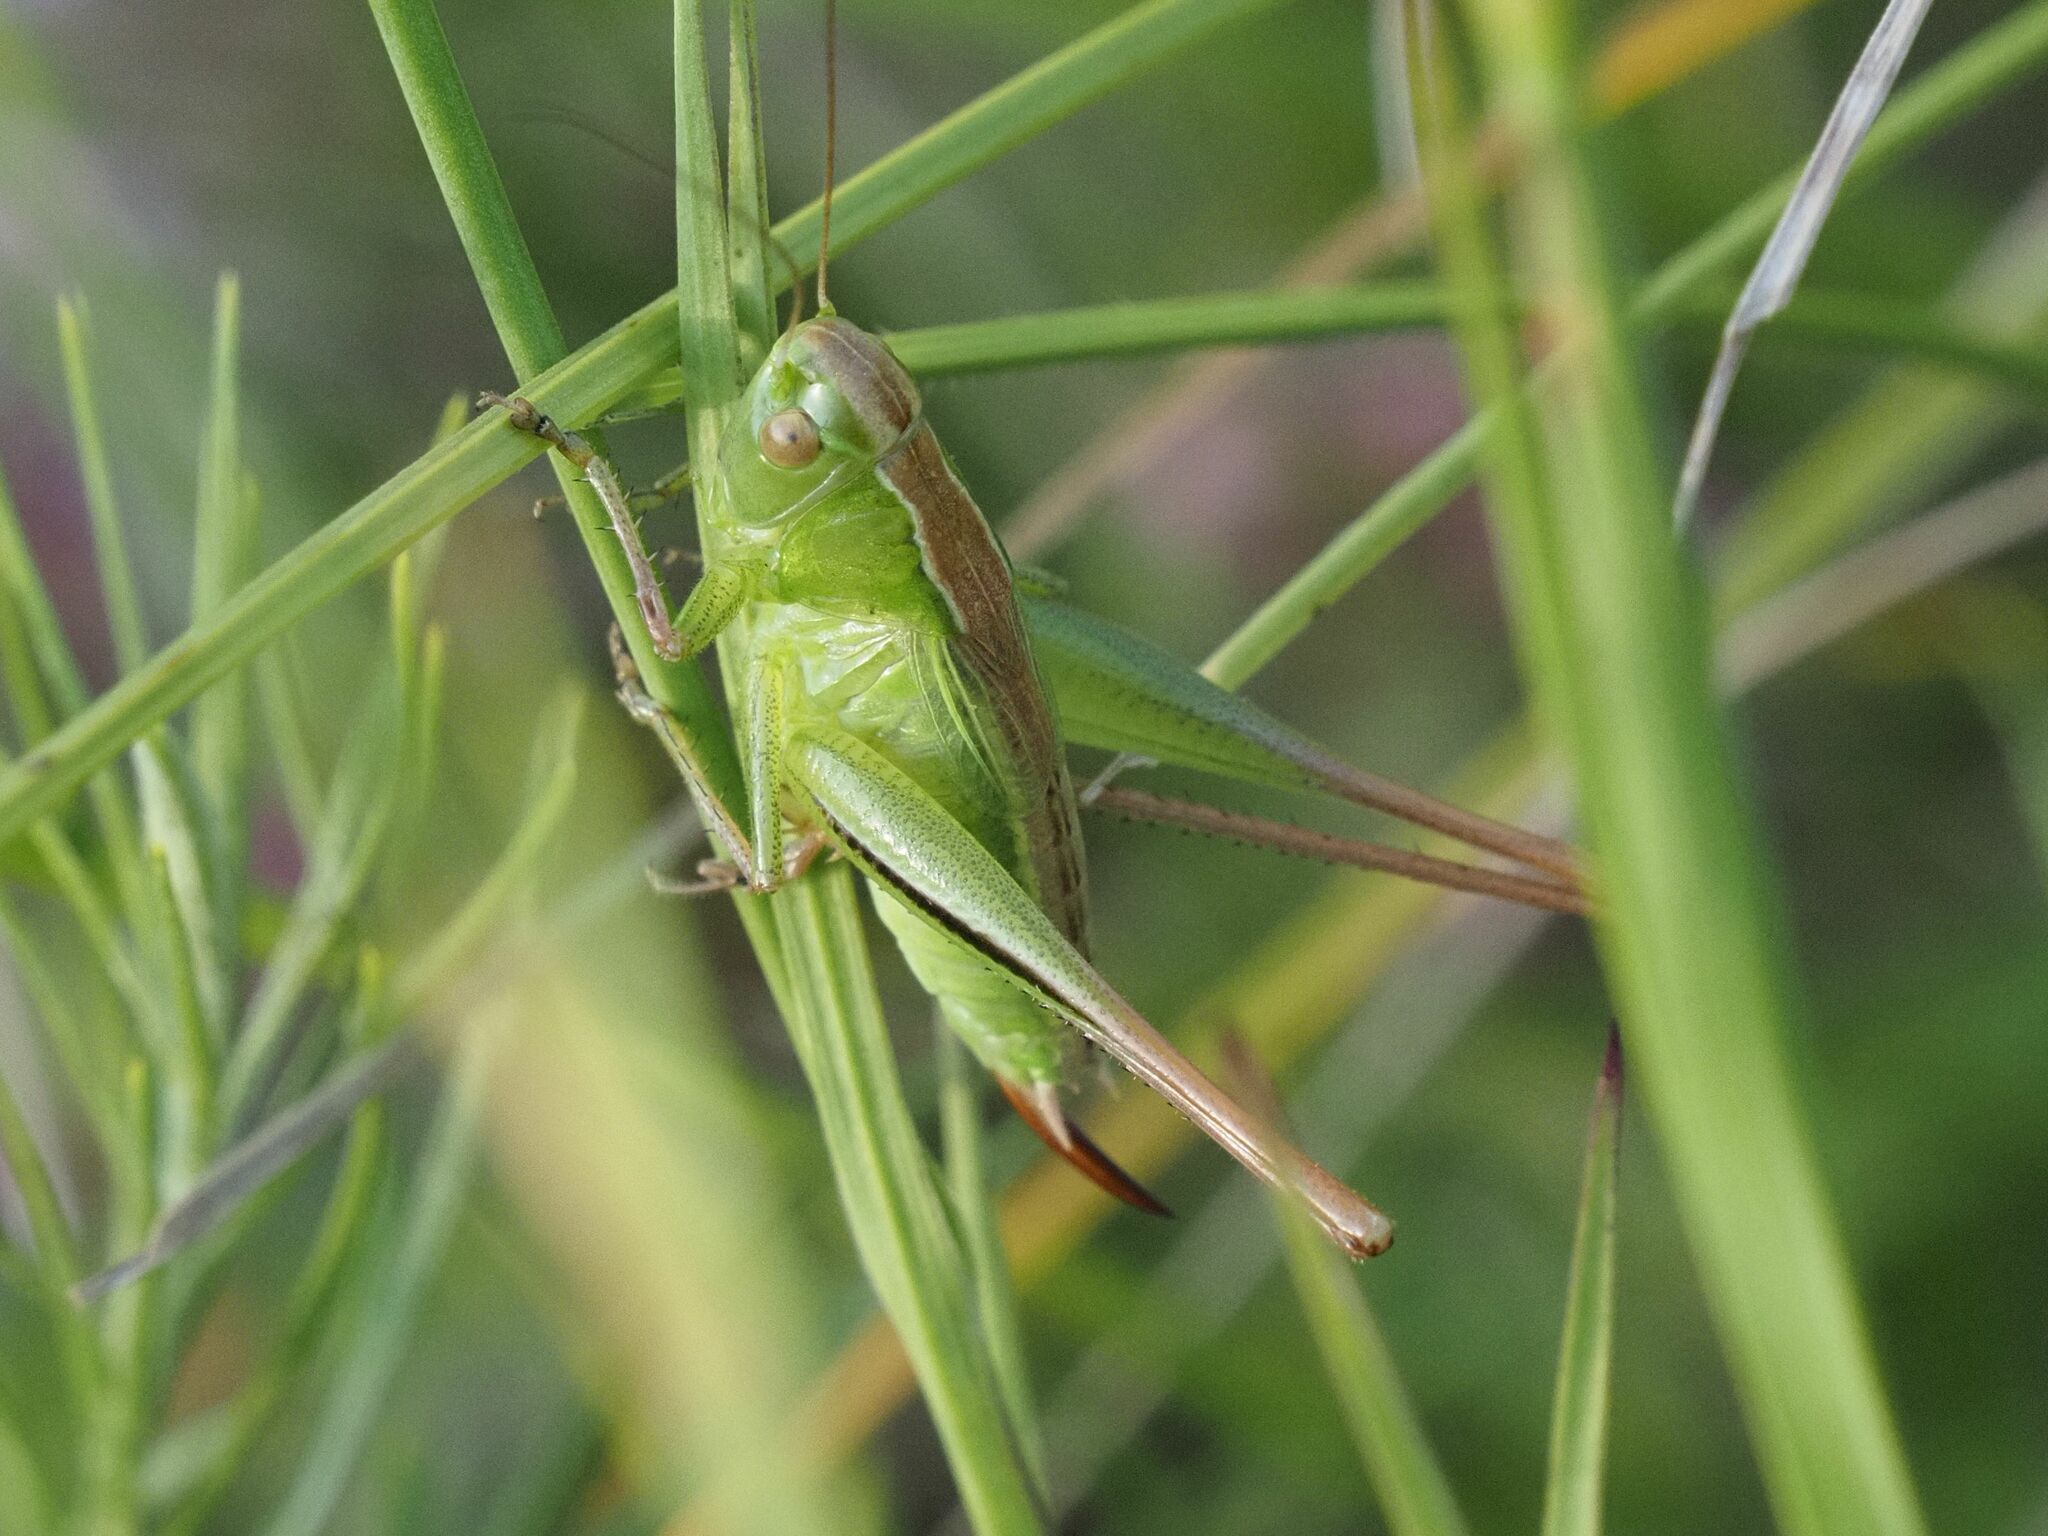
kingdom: Animalia
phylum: Arthropoda
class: Insecta
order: Orthoptera
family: Tettigoniidae
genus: Bicolorana
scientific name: Bicolorana bicolor
